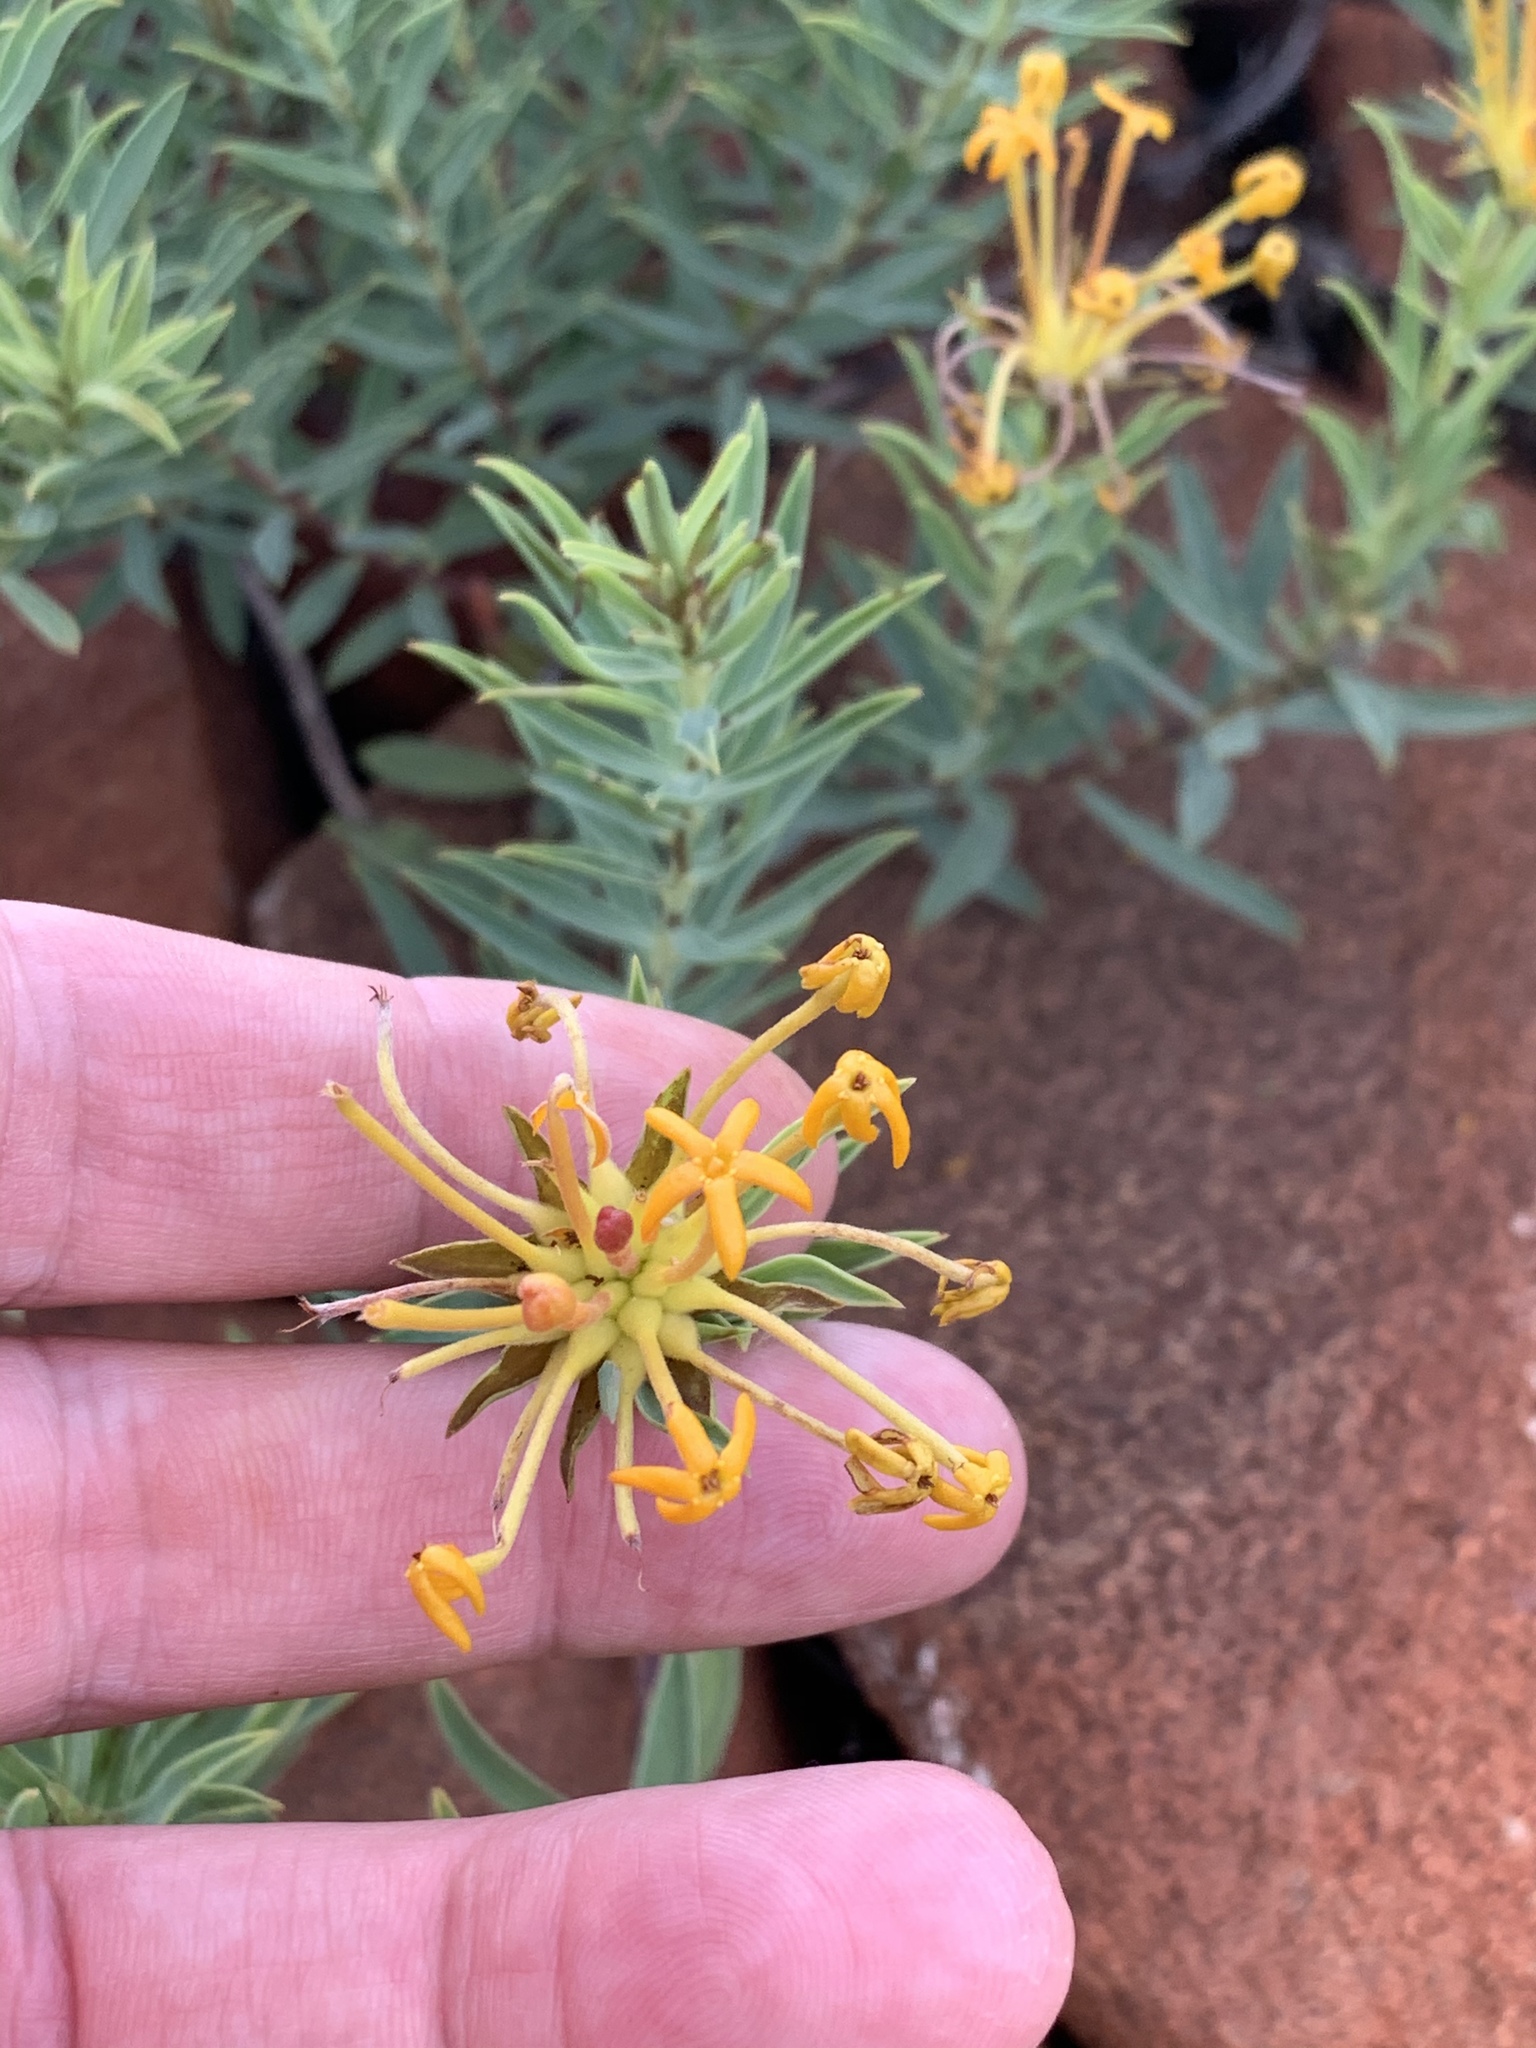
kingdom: Plantae
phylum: Tracheophyta
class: Magnoliopsida
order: Malvales
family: Thymelaeaceae
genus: Gnidia
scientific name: Gnidia capitata
